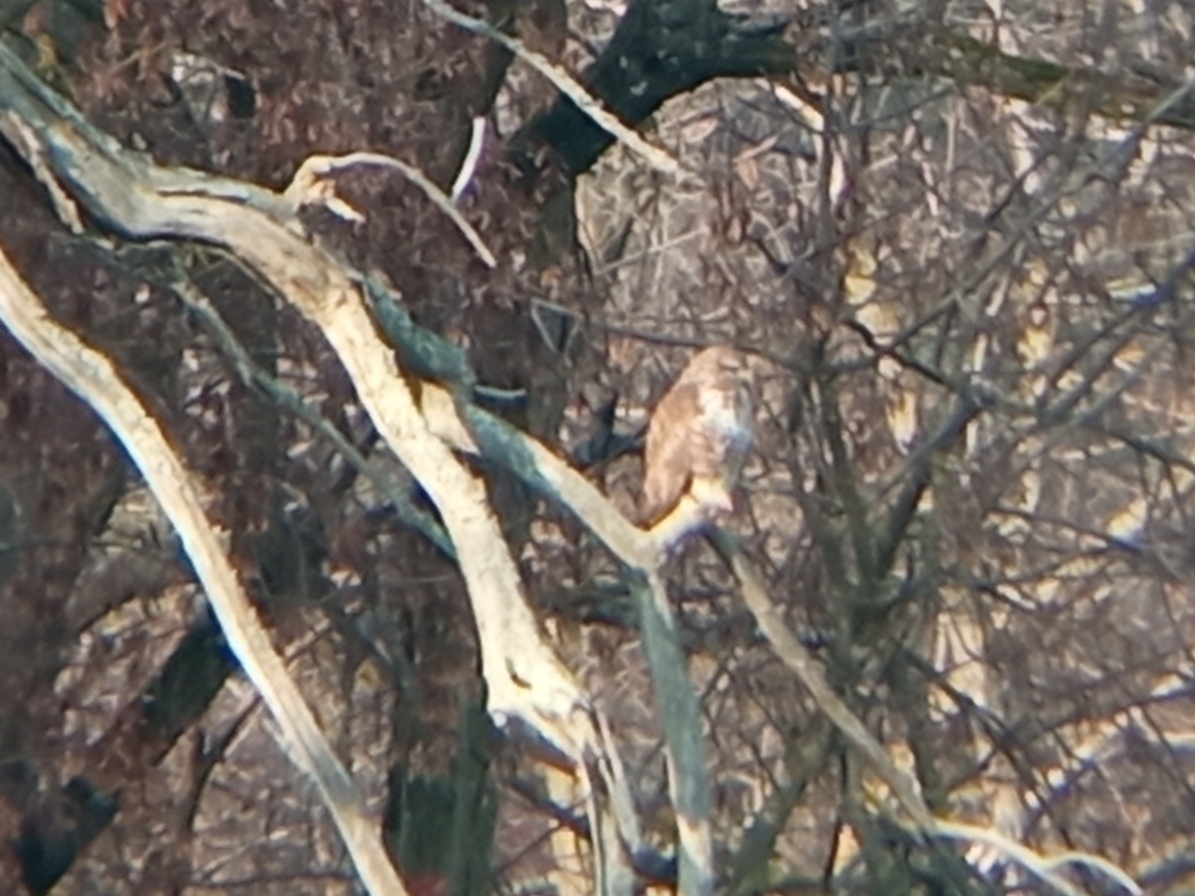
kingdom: Animalia
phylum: Chordata
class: Aves
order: Accipitriformes
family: Accipitridae
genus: Buteo
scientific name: Buteo buteo
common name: Common buzzard
